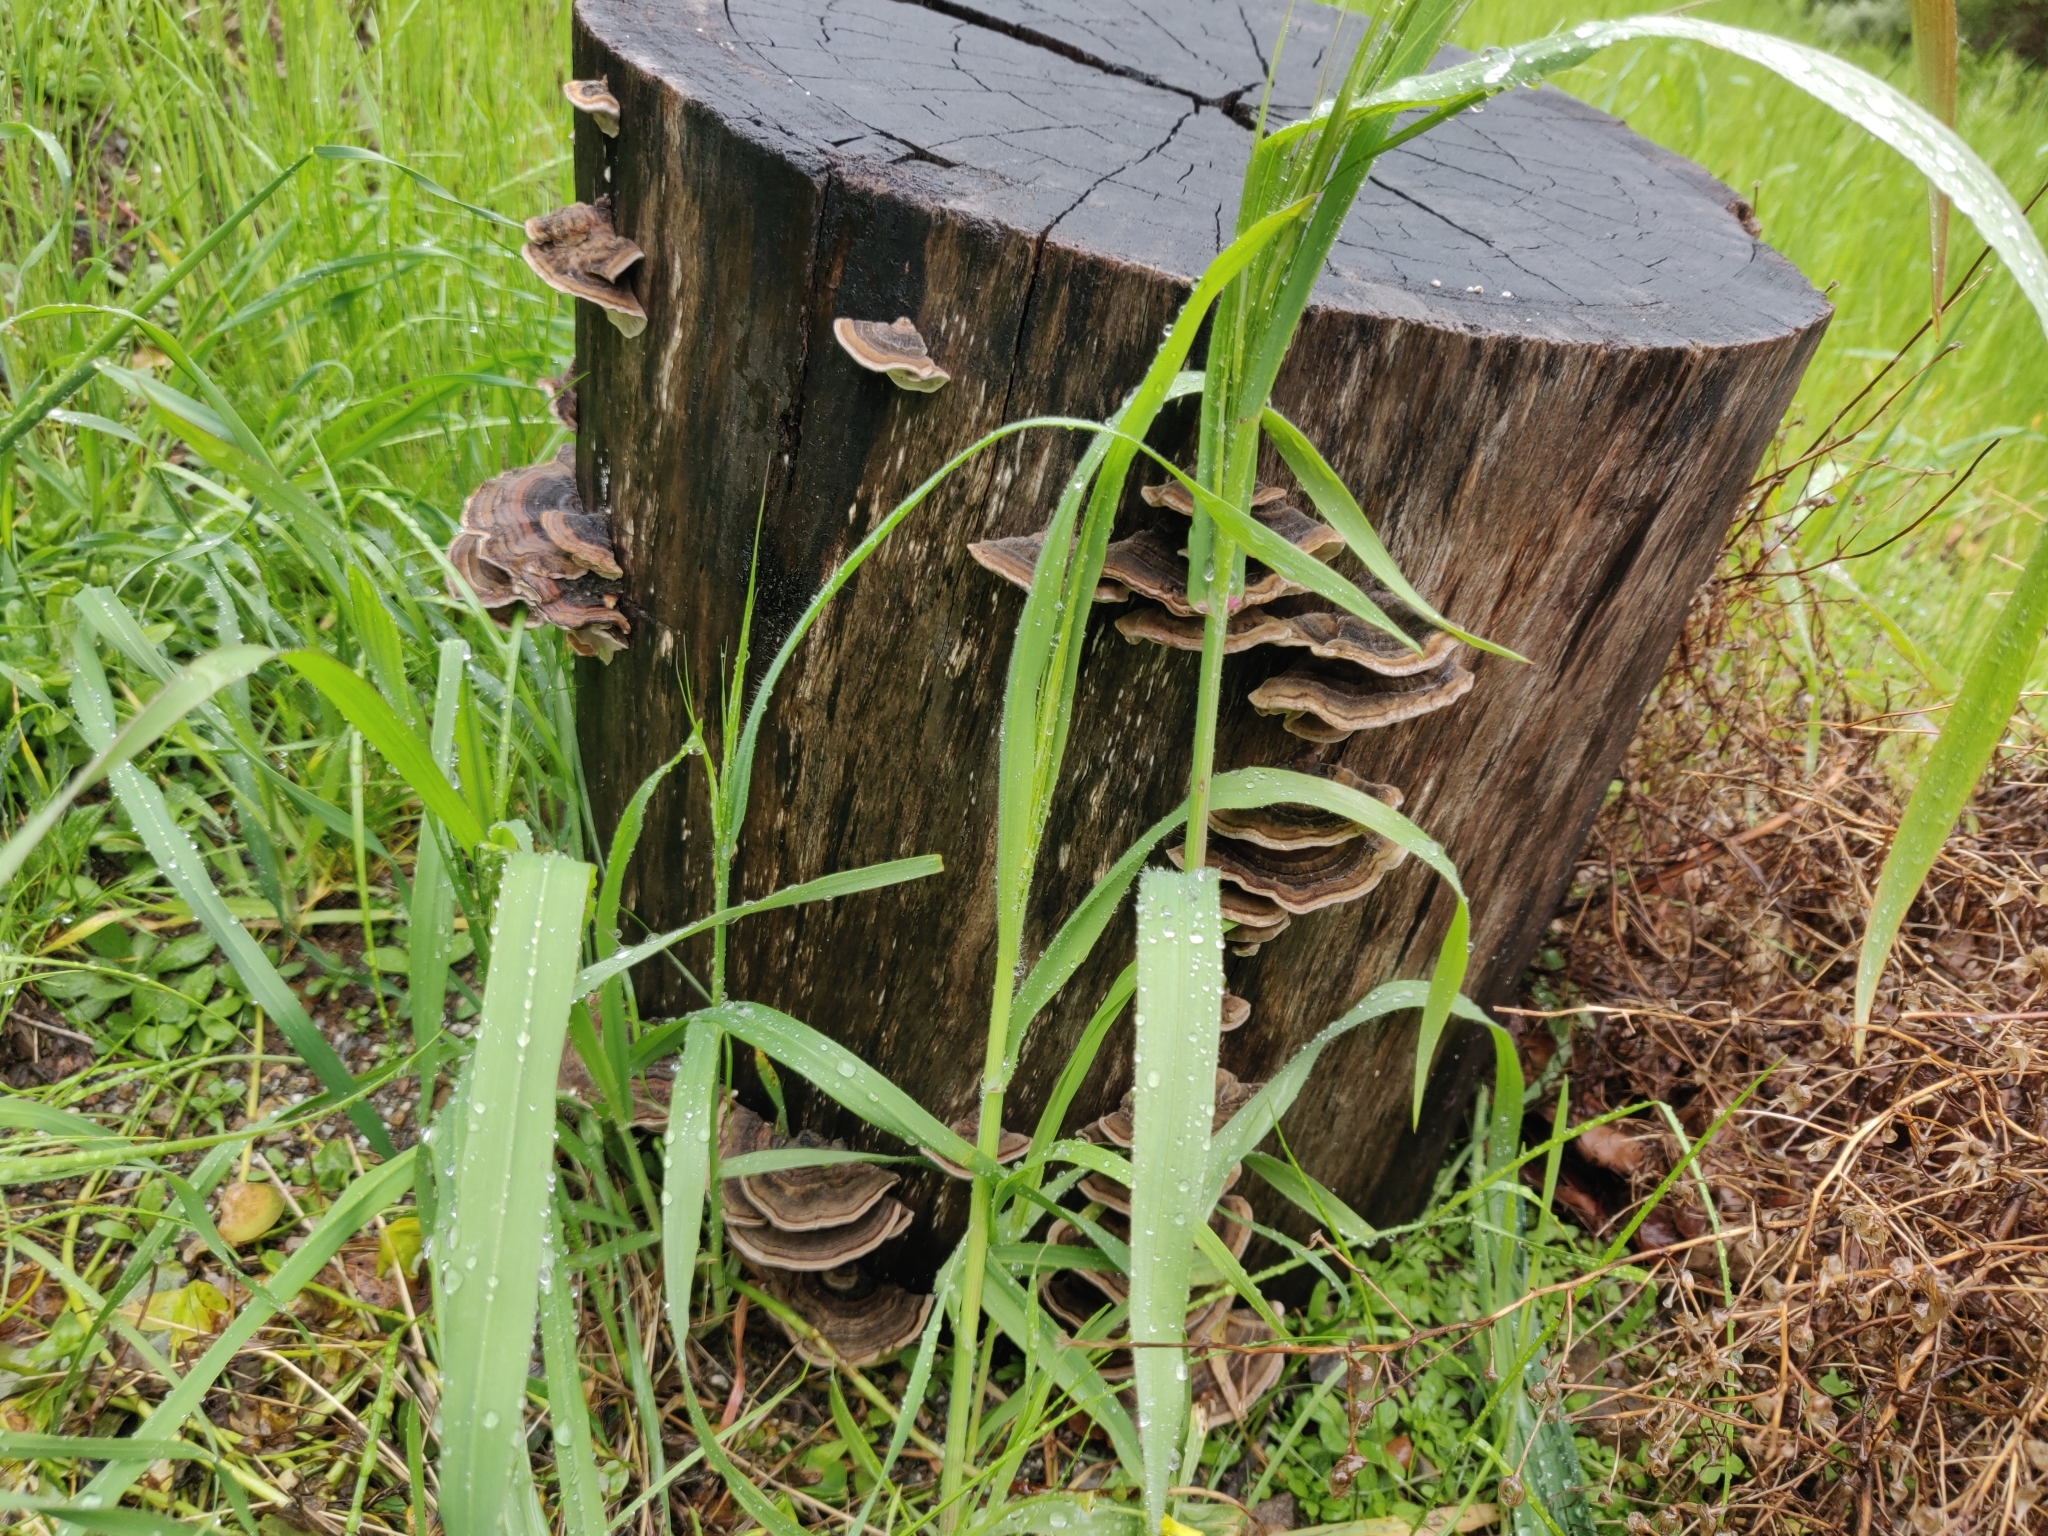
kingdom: Fungi
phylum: Basidiomycota
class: Agaricomycetes
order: Polyporales
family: Polyporaceae
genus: Trametes
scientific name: Trametes versicolor
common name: Turkeytail
